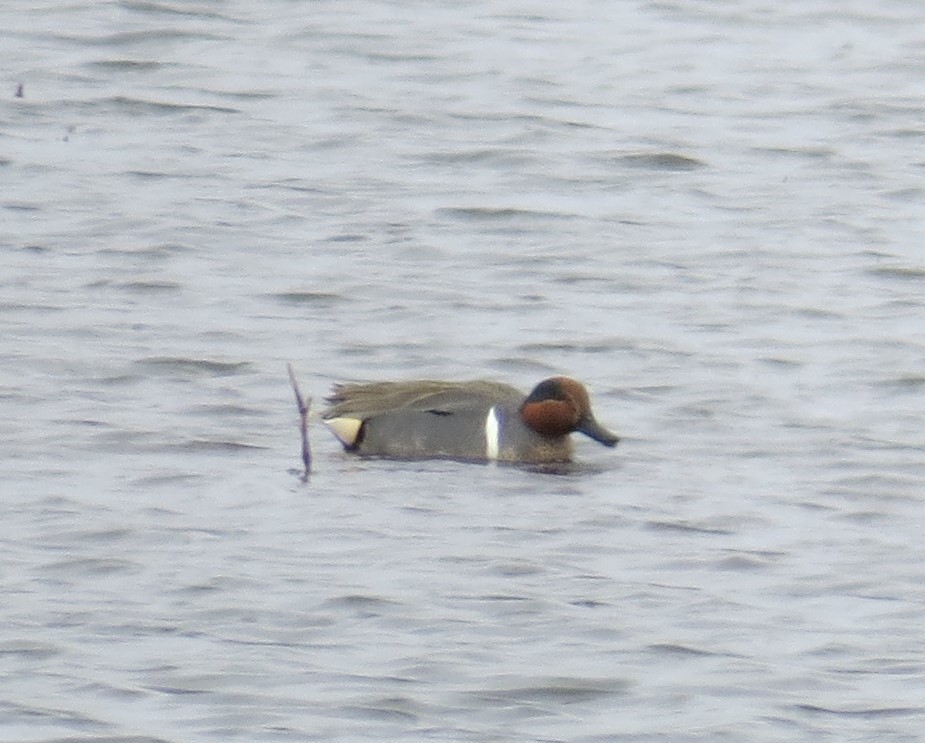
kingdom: Animalia
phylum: Chordata
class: Aves
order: Anseriformes
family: Anatidae
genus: Anas
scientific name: Anas crecca
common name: Eurasian teal
